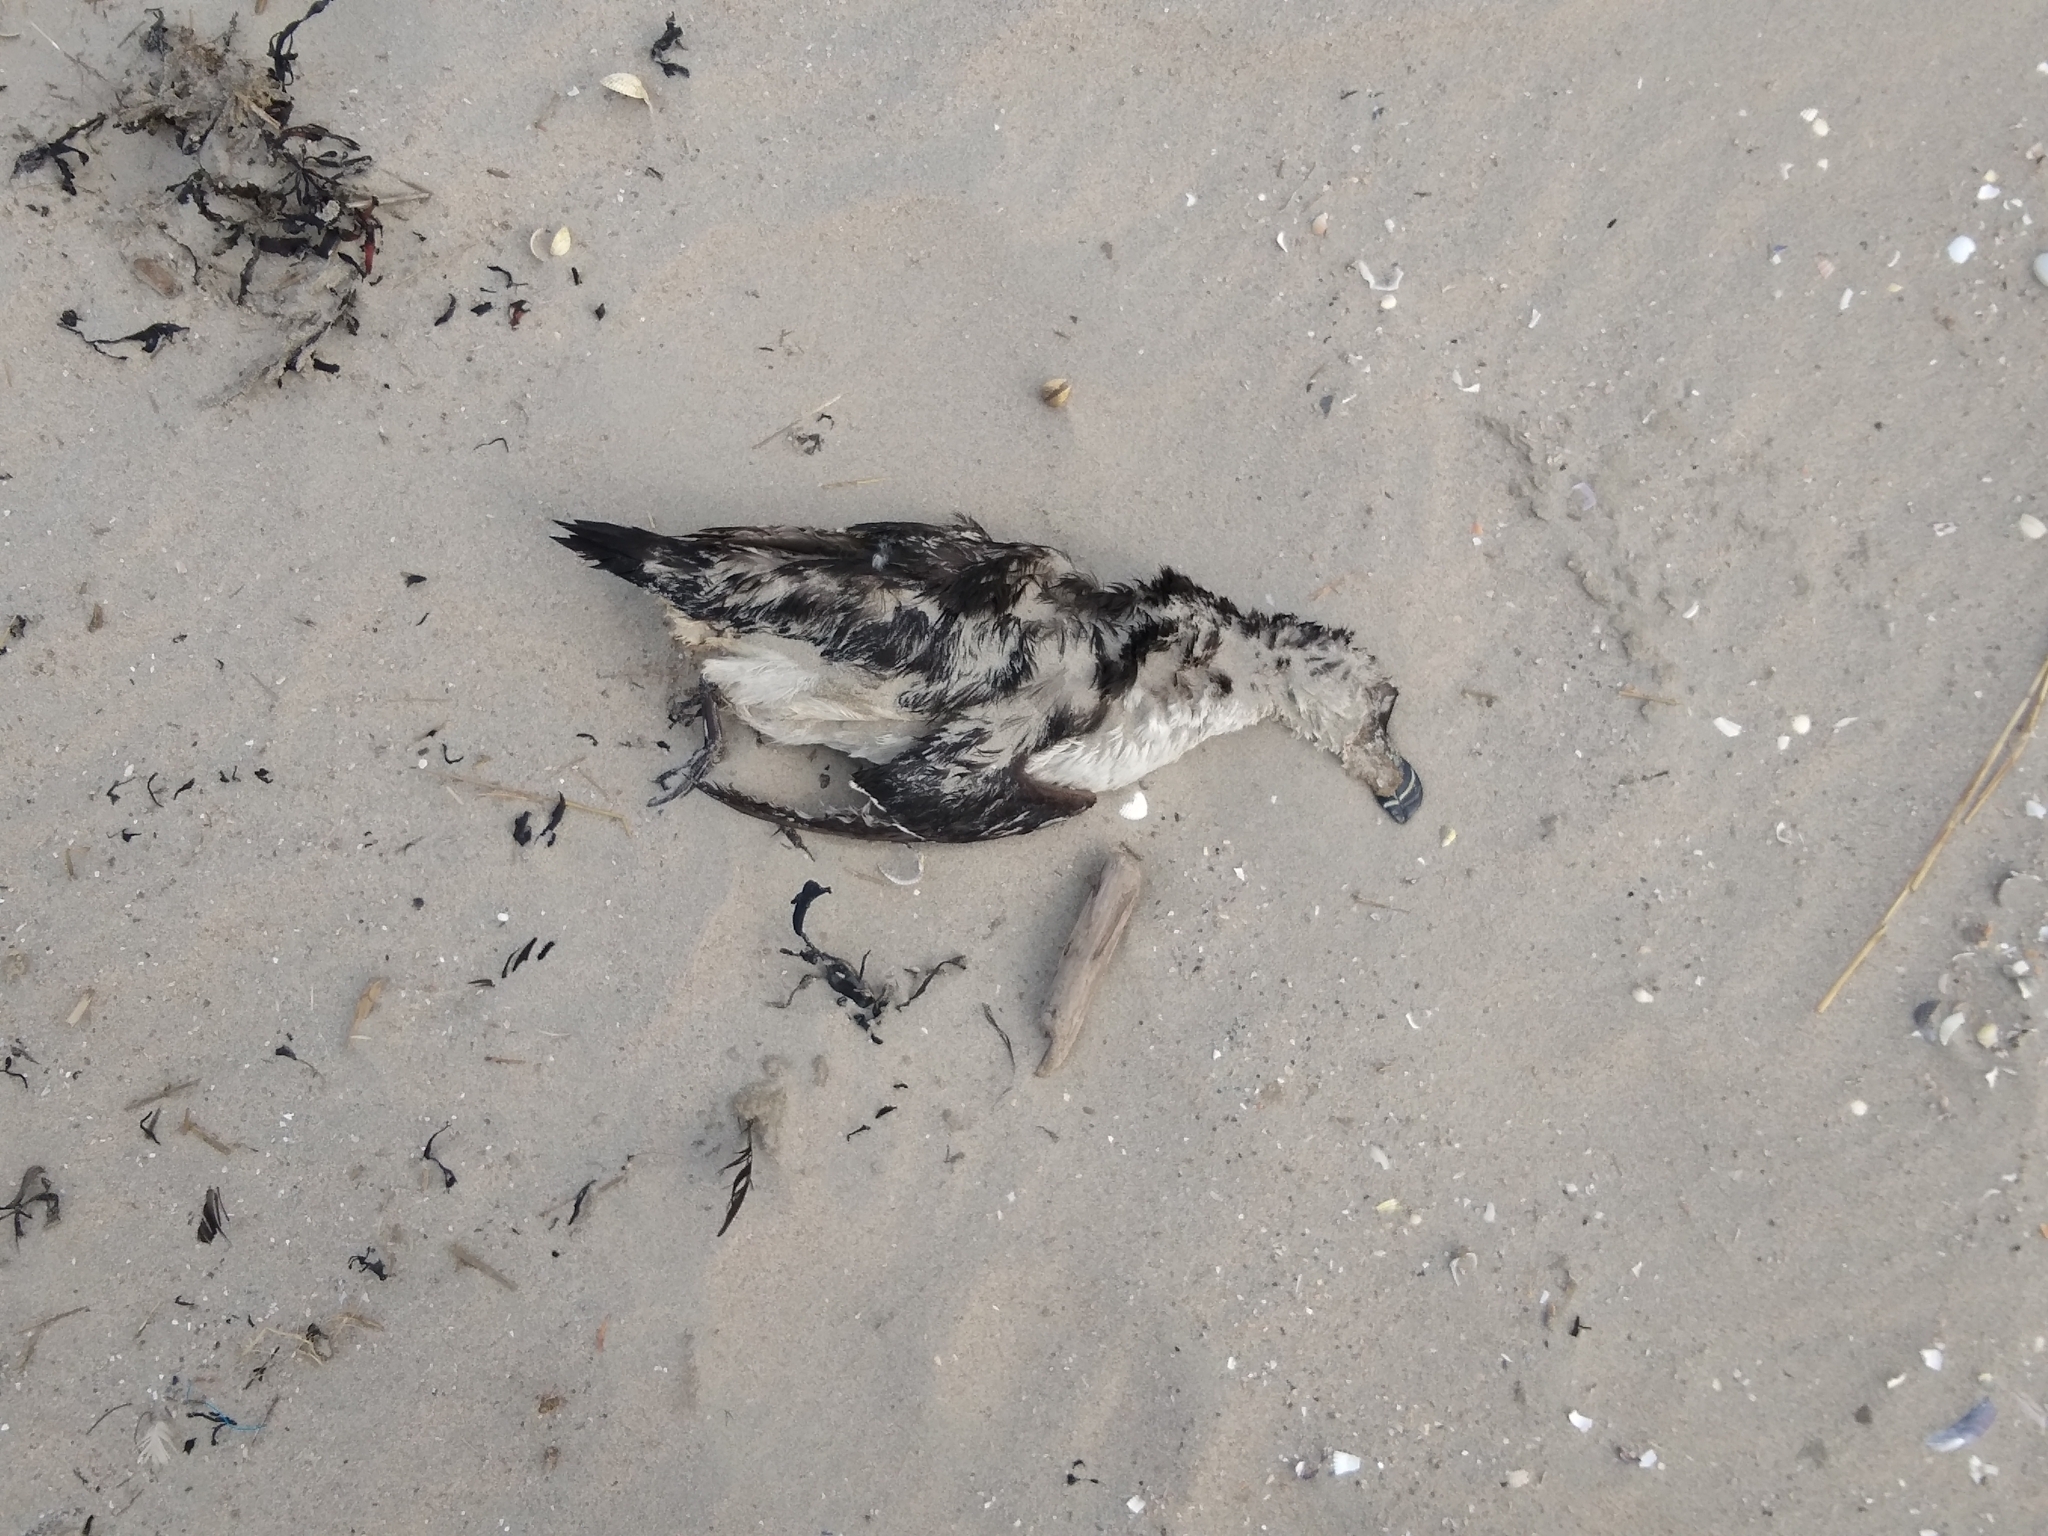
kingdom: Animalia
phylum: Chordata
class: Aves
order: Charadriiformes
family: Alcidae
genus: Alca
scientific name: Alca torda
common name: Razorbill
